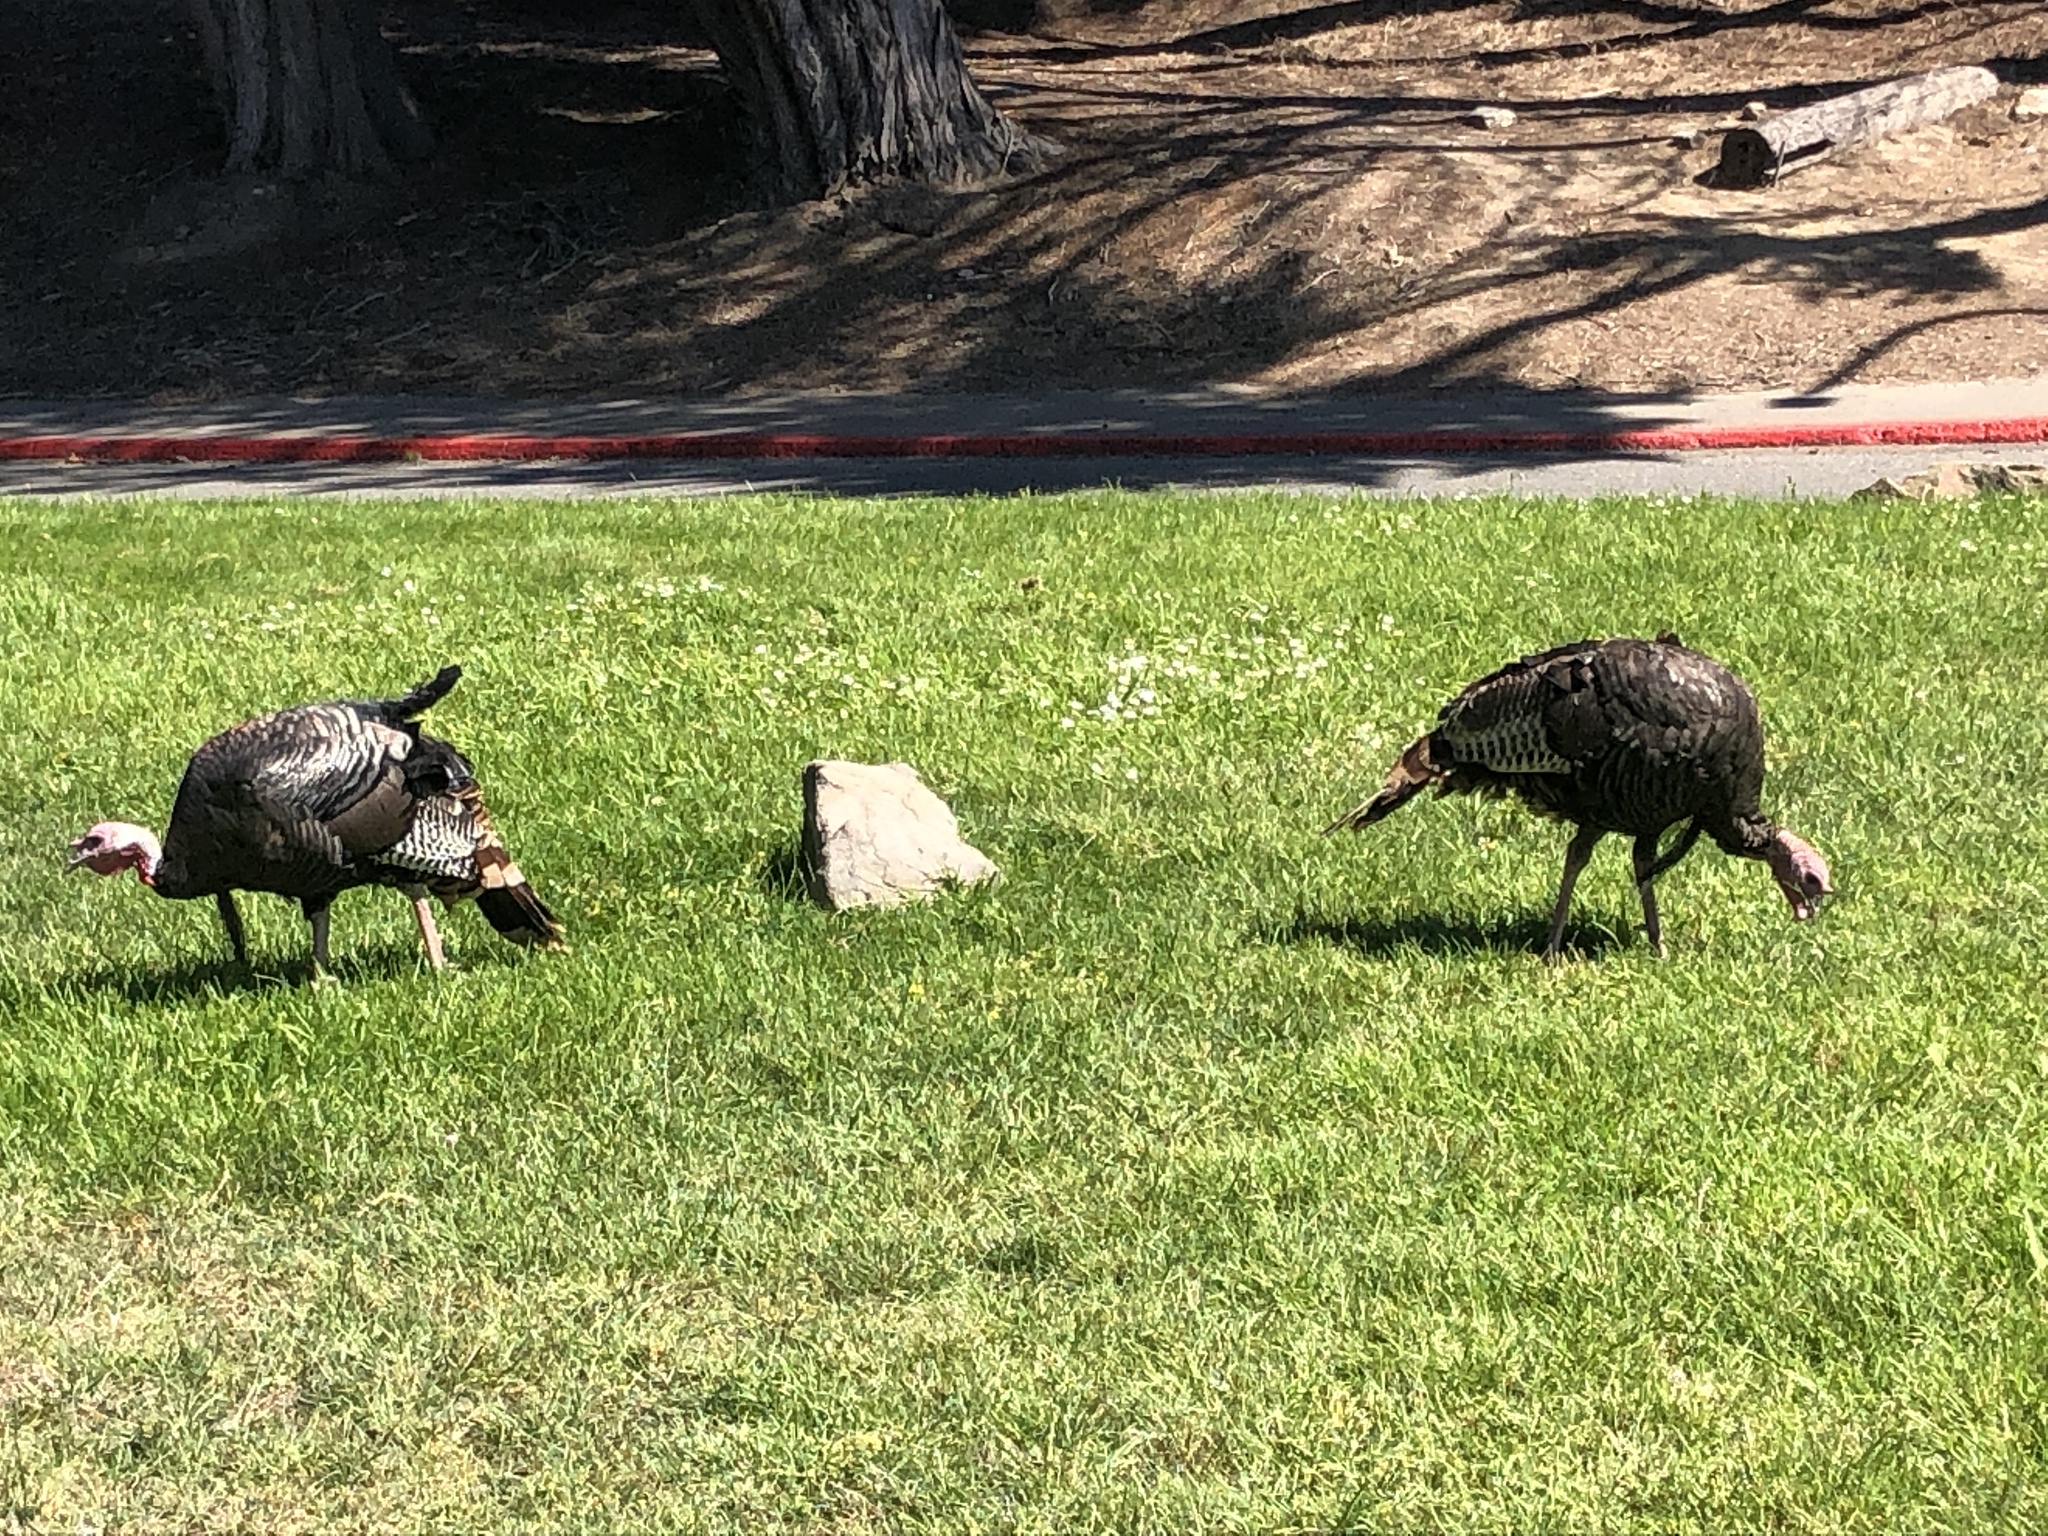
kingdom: Animalia
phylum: Chordata
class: Aves
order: Galliformes
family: Phasianidae
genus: Meleagris
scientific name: Meleagris gallopavo
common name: Wild turkey
